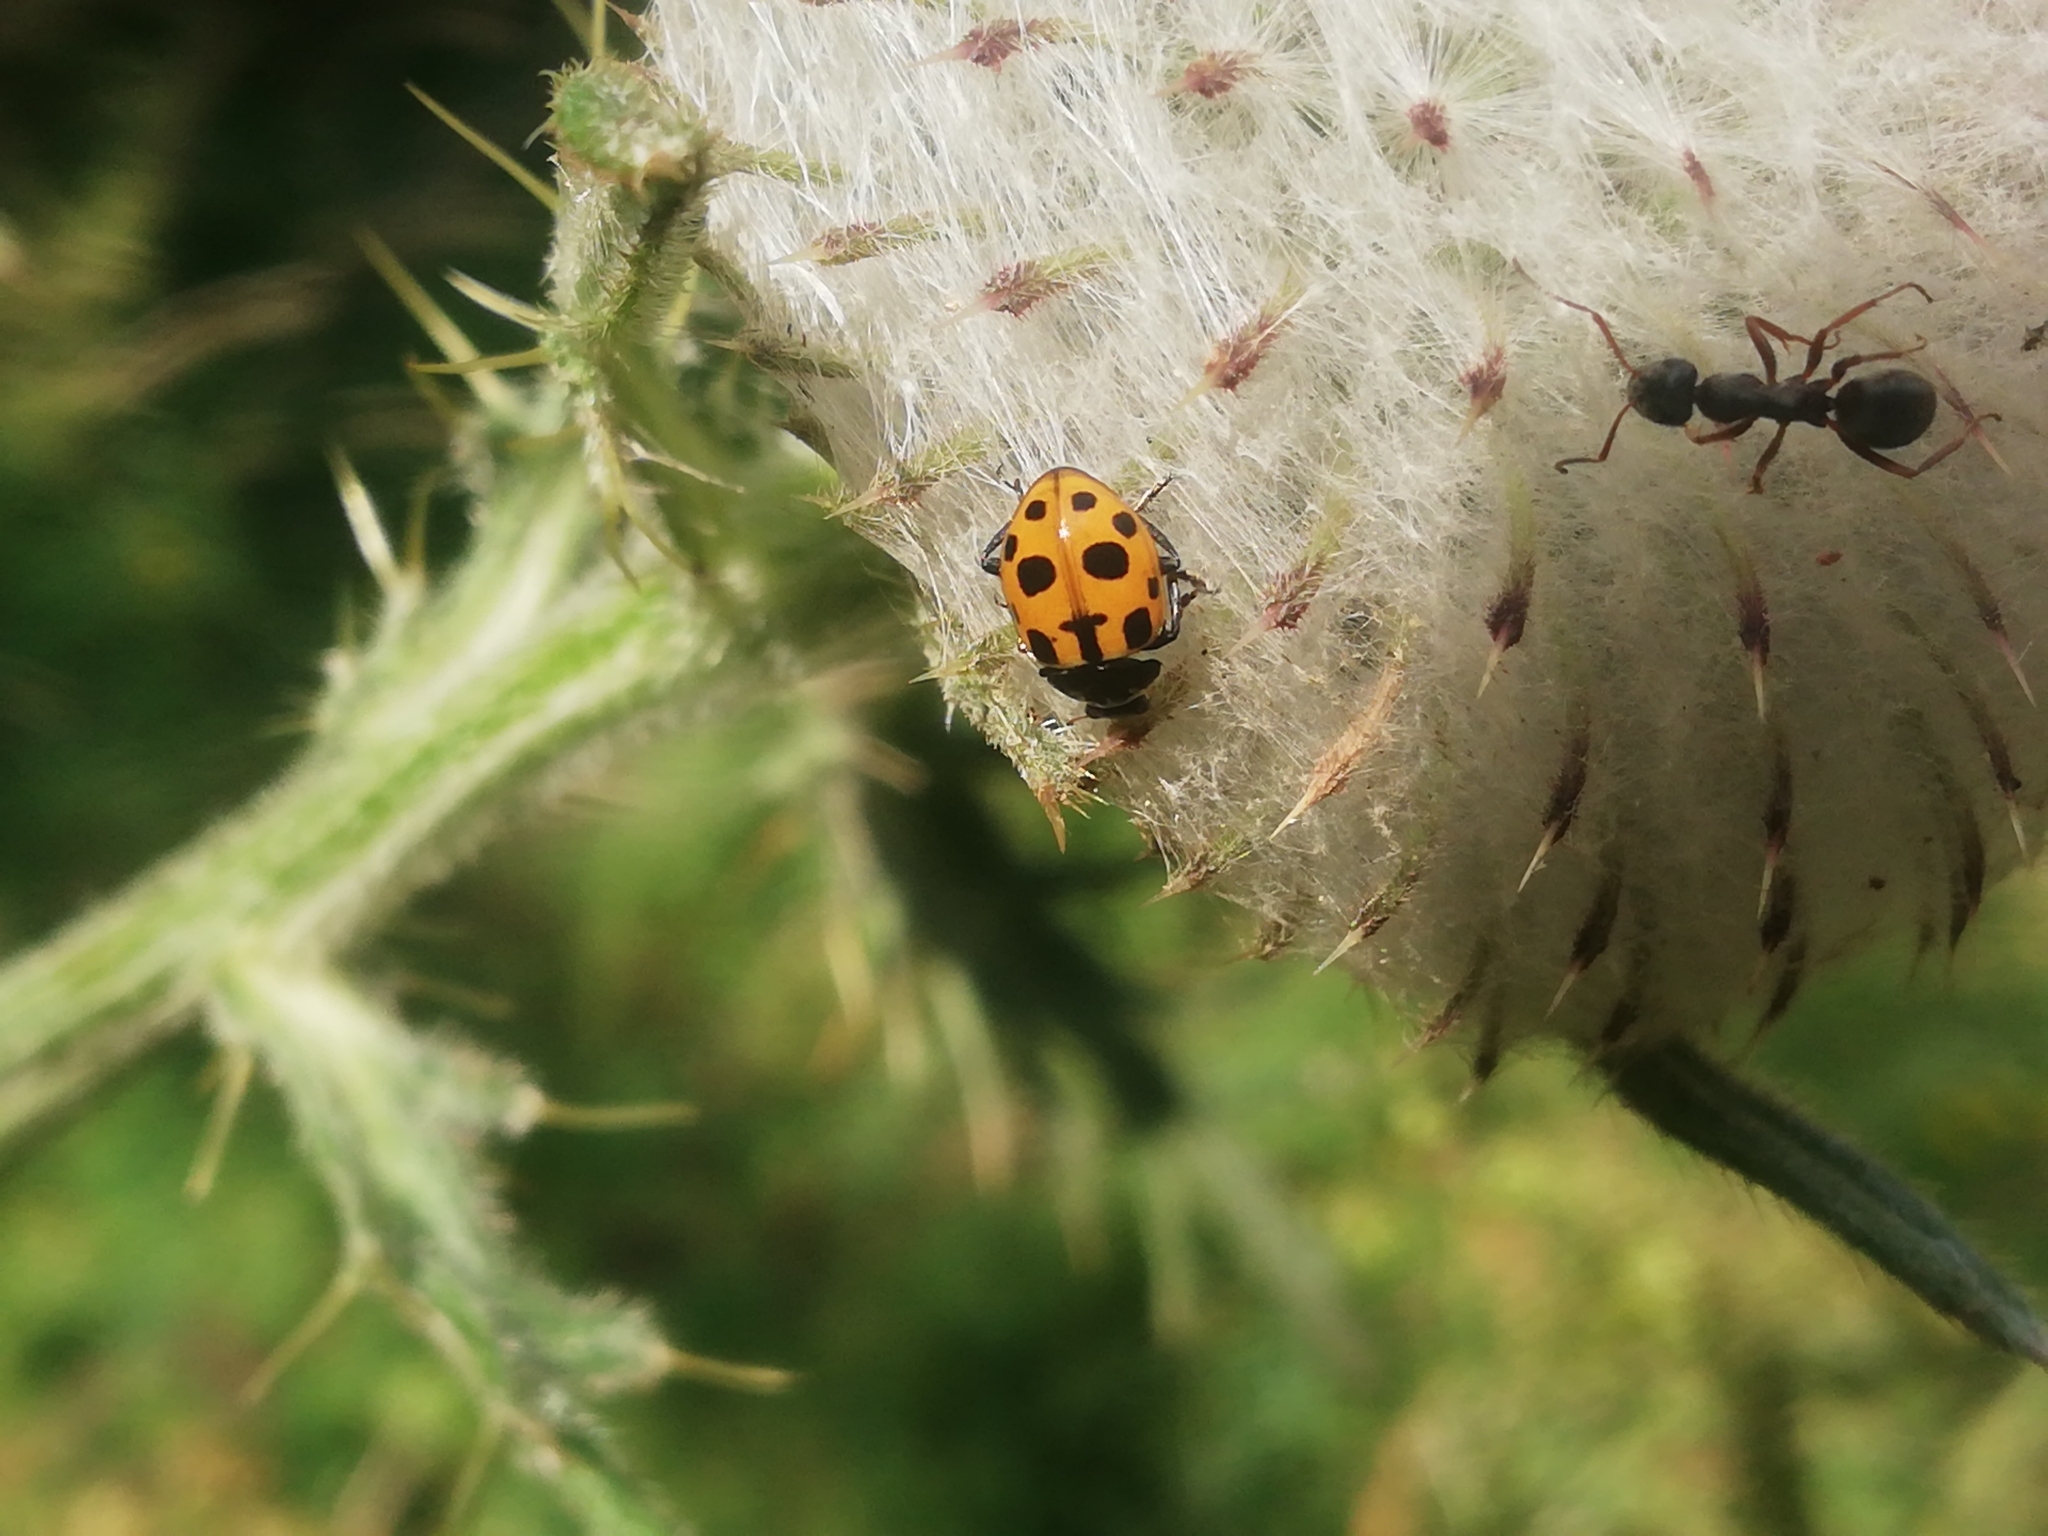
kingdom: Animalia
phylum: Arthropoda
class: Insecta
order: Coleoptera
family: Coccinellidae
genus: Ceratomegilla
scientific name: Ceratomegilla notata
